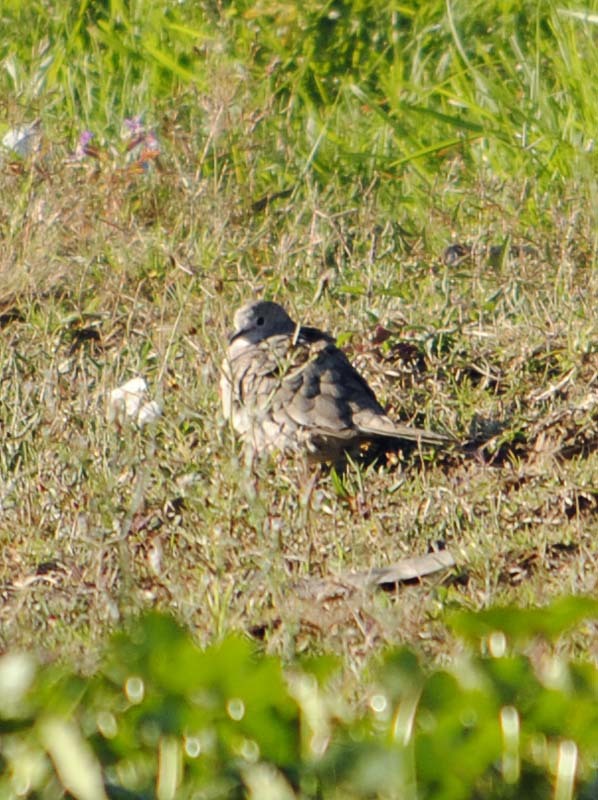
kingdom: Animalia
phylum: Chordata
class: Aves
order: Columbiformes
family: Columbidae
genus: Columbina
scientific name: Columbina inca
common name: Inca dove
